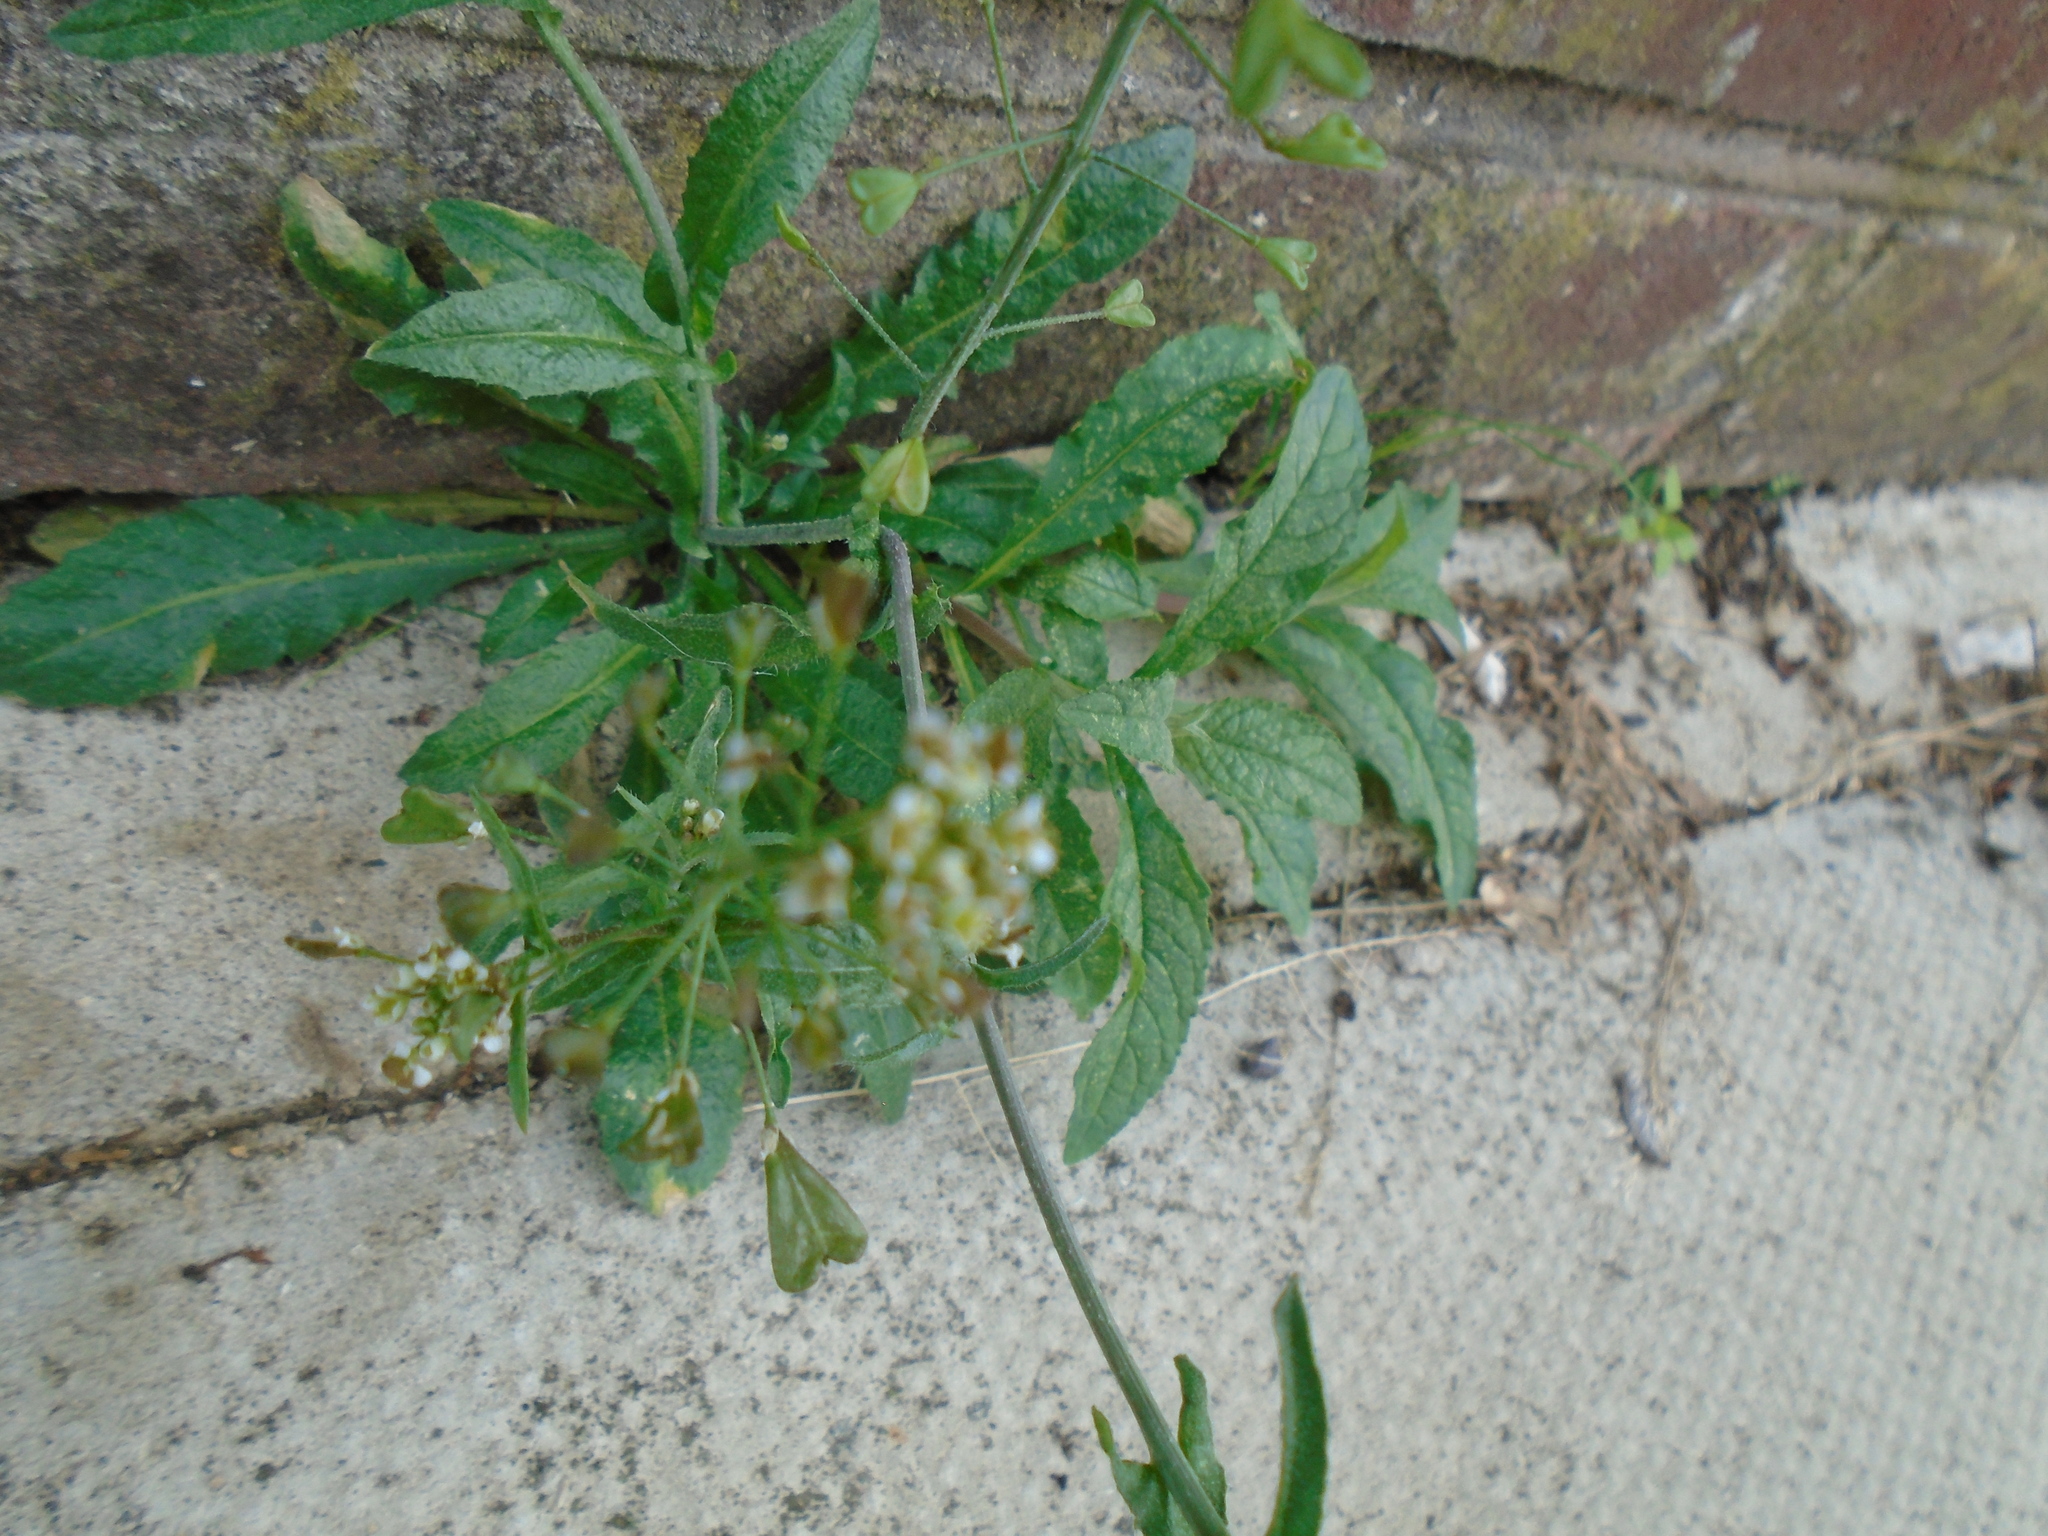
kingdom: Plantae
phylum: Tracheophyta
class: Magnoliopsida
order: Brassicales
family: Brassicaceae
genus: Capsella
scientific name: Capsella bursa-pastoris
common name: Shepherd's purse
